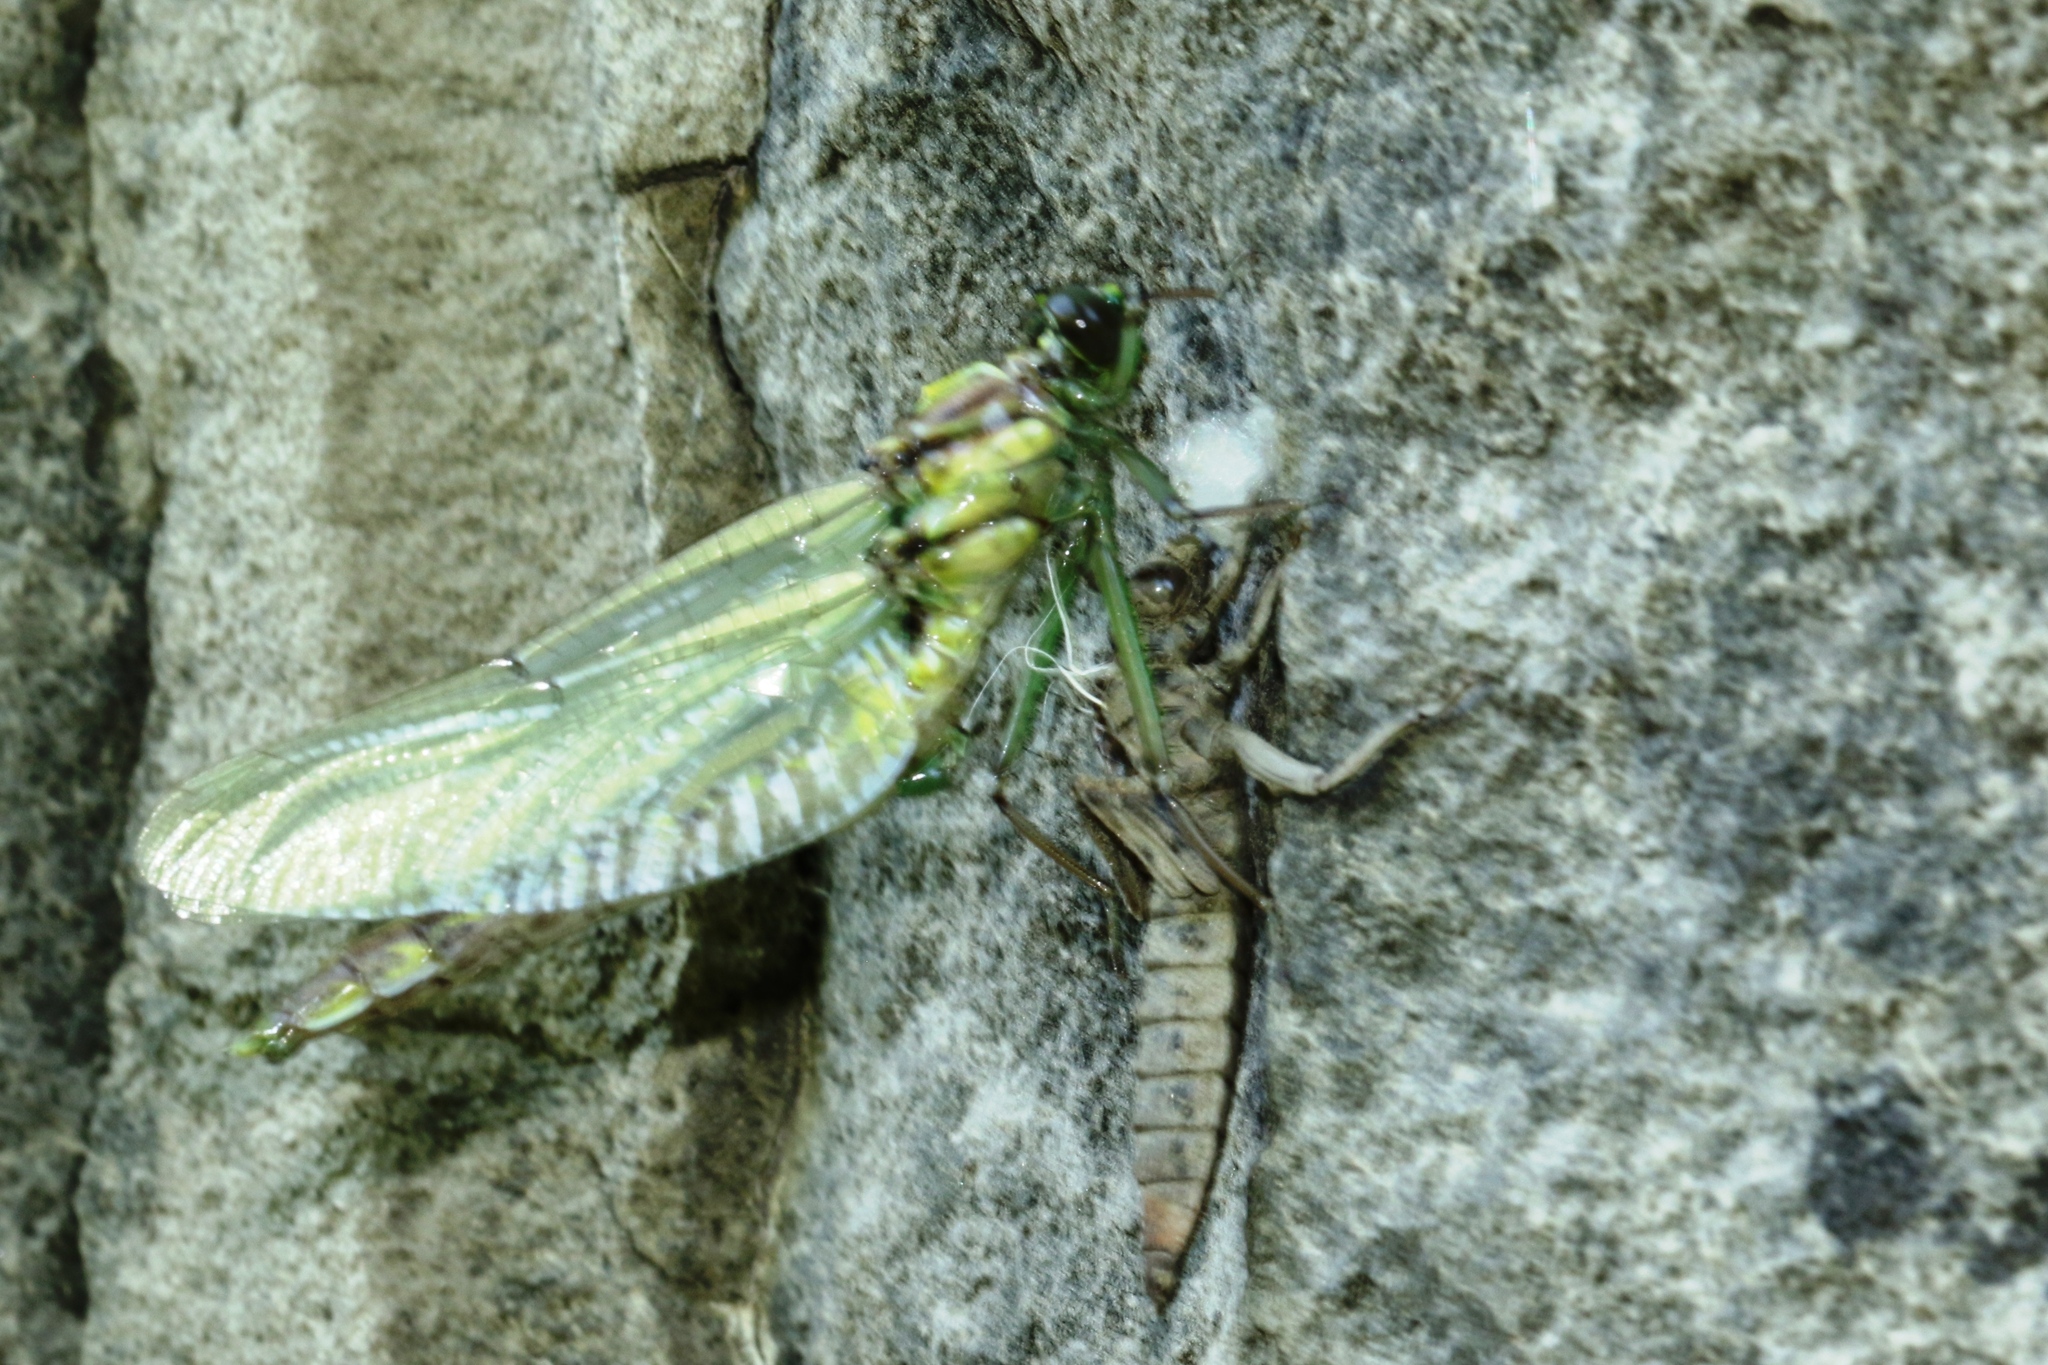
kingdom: Animalia
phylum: Arthropoda
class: Insecta
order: Odonata
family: Gomphidae
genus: Dromogomphus
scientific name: Dromogomphus spinosus
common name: Black-shouldered spinyleg
